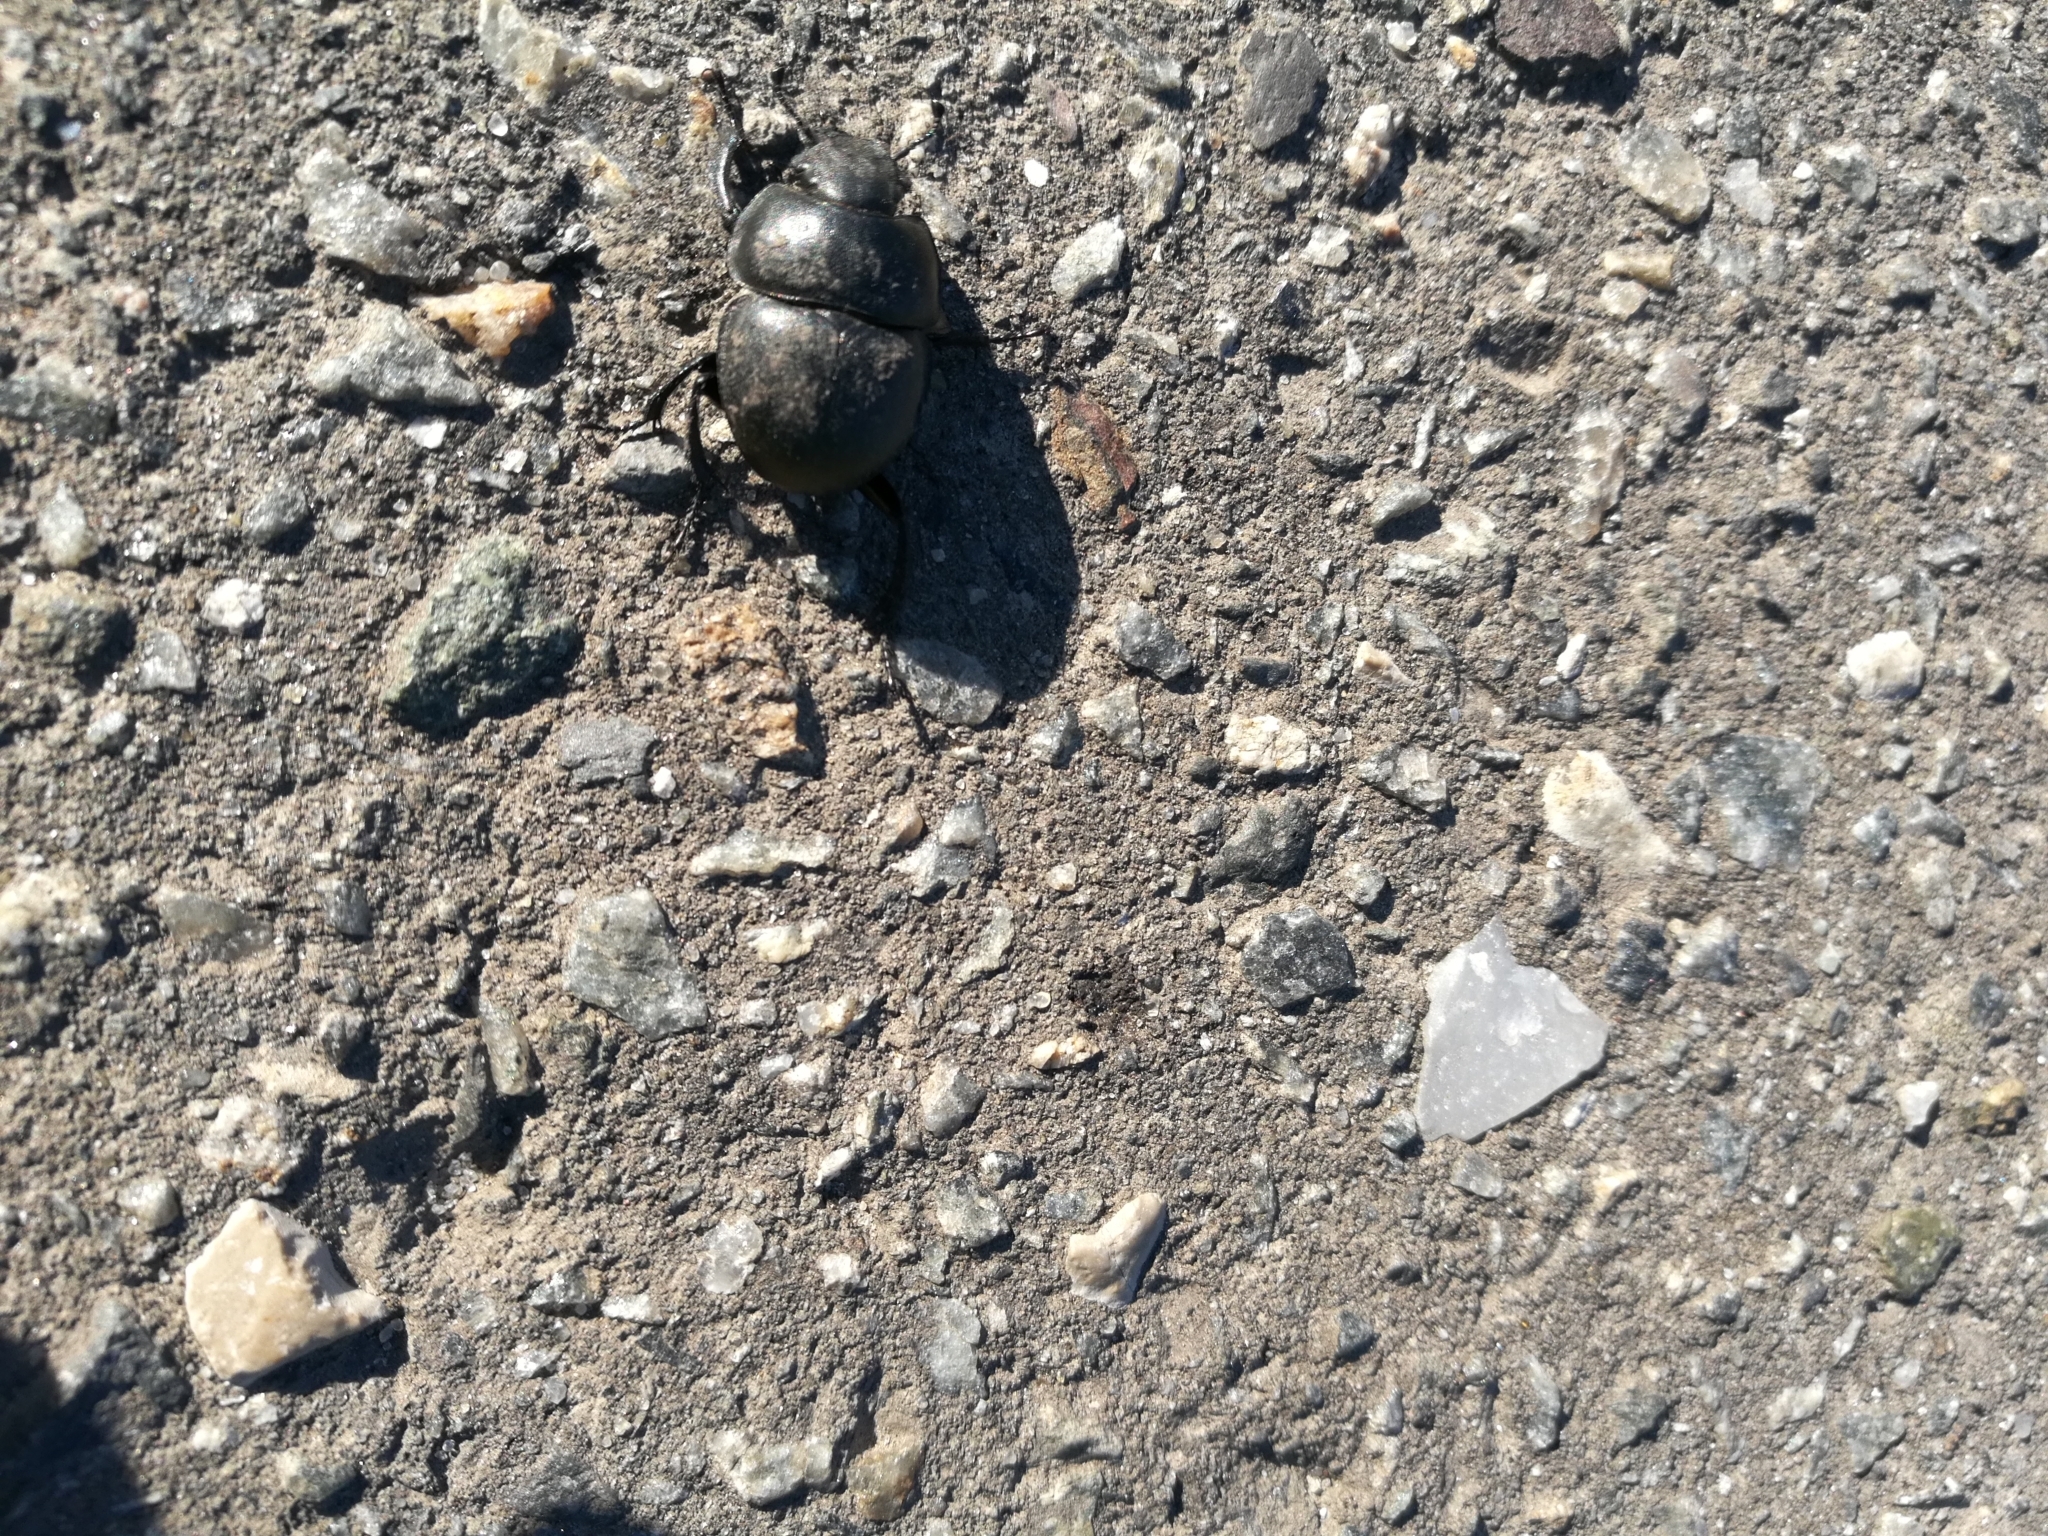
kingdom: Animalia
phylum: Arthropoda
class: Insecta
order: Coleoptera
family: Geotrupidae
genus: Lethrus
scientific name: Lethrus apterus
